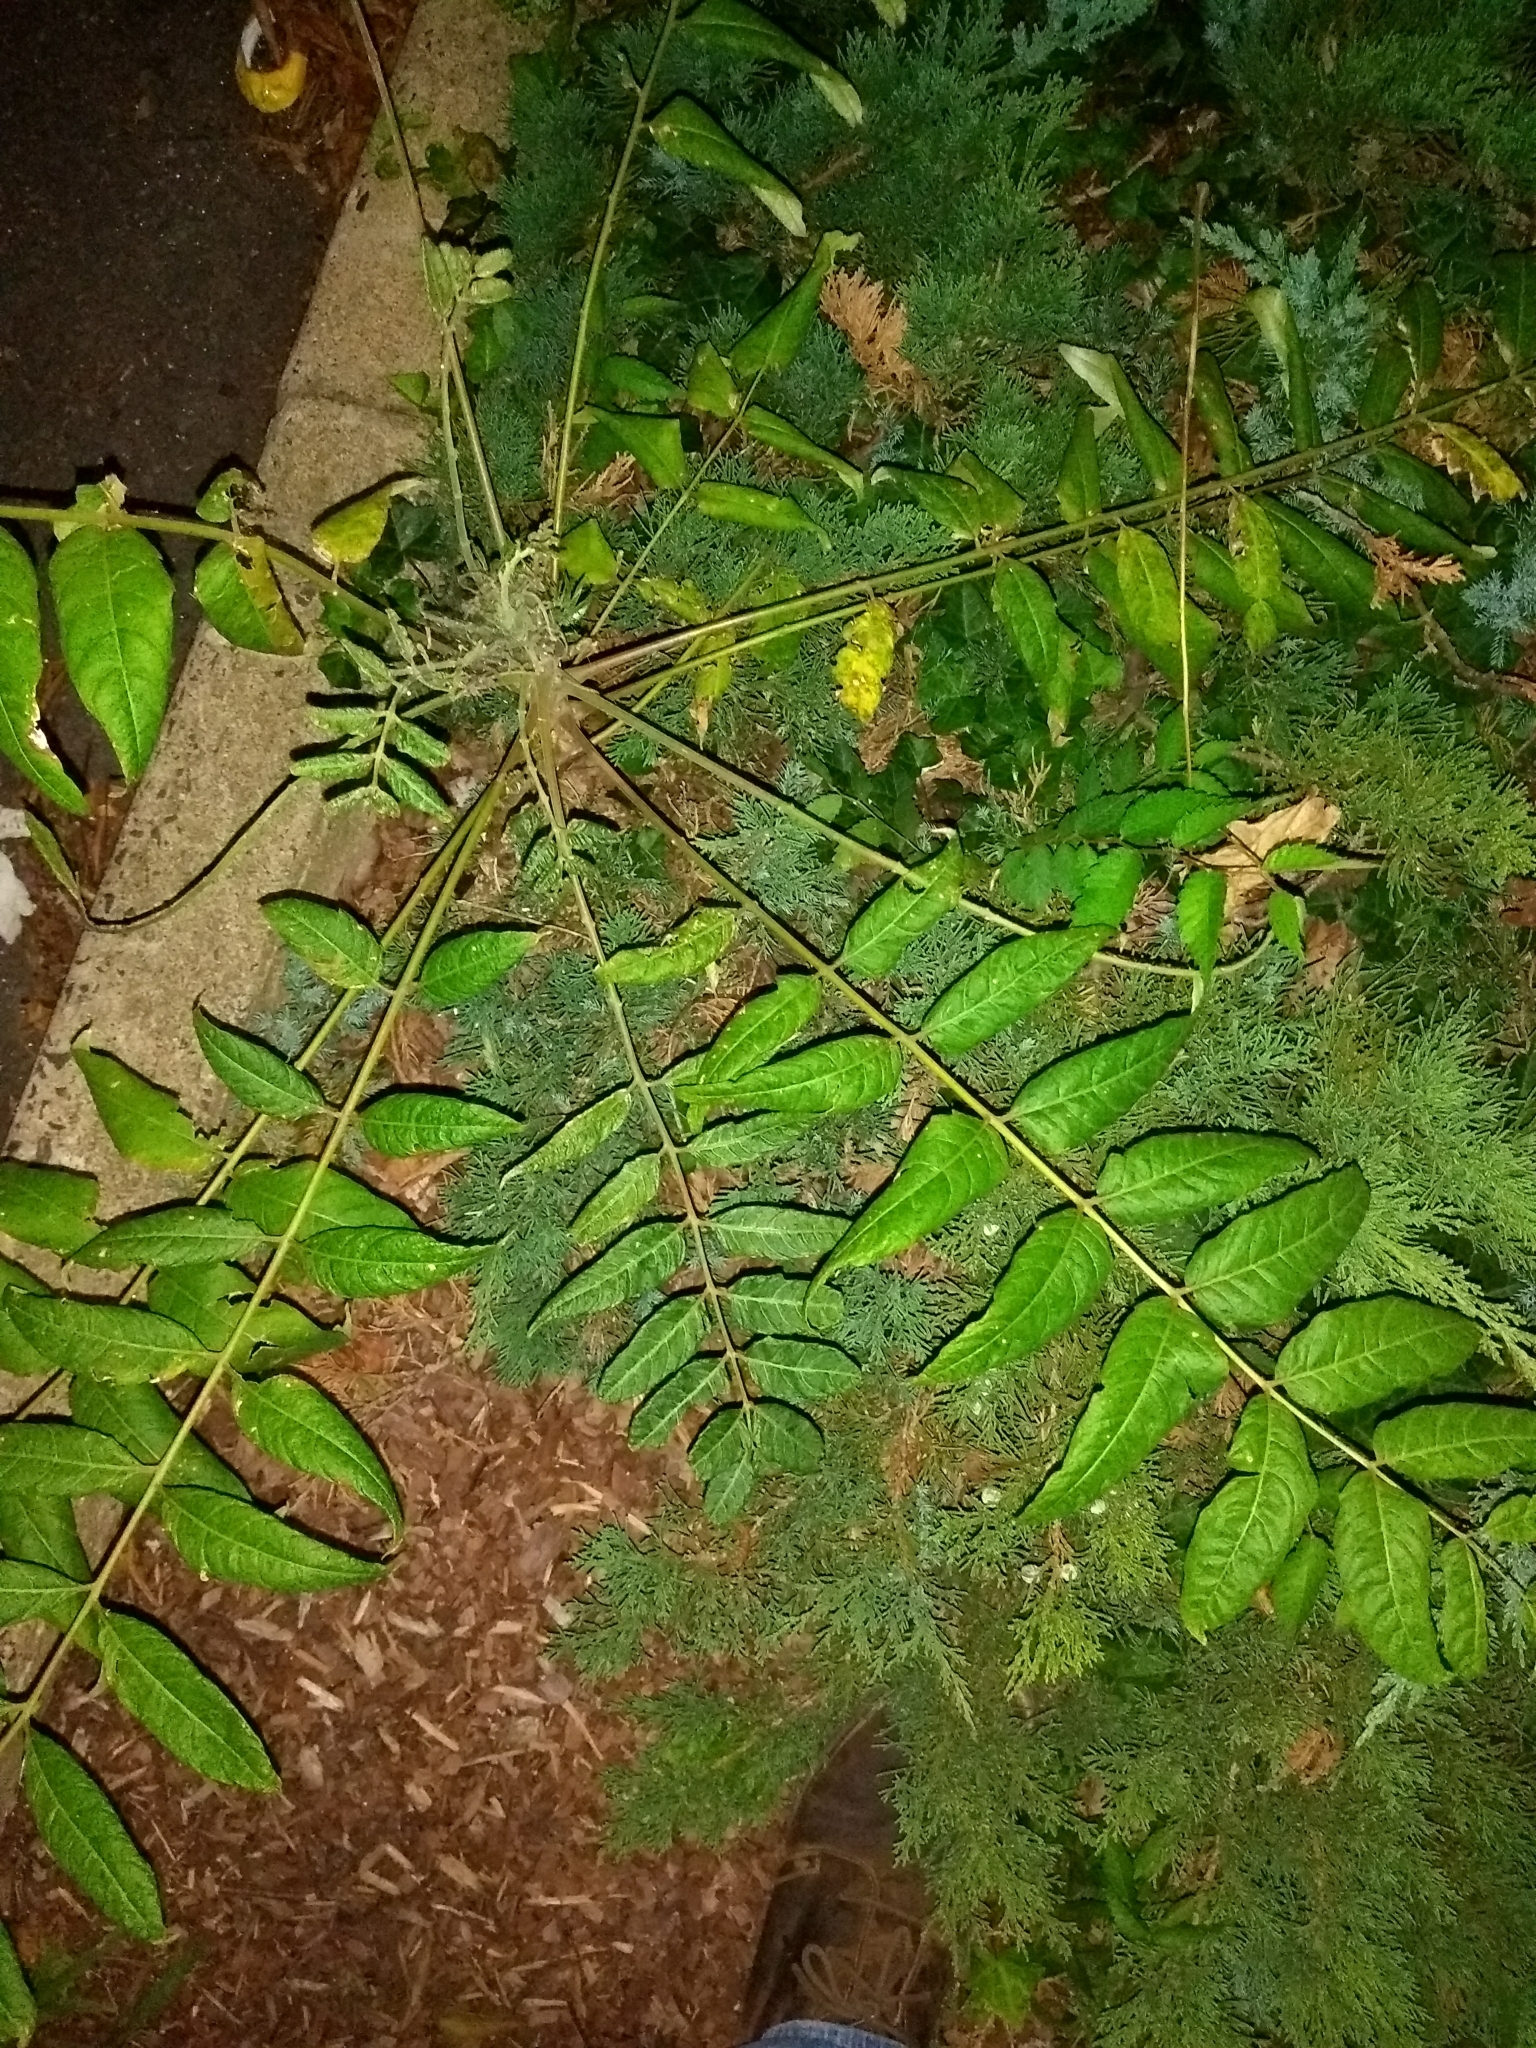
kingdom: Plantae
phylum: Tracheophyta
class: Magnoliopsida
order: Sapindales
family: Simaroubaceae
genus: Ailanthus
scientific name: Ailanthus altissima
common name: Tree-of-heaven
